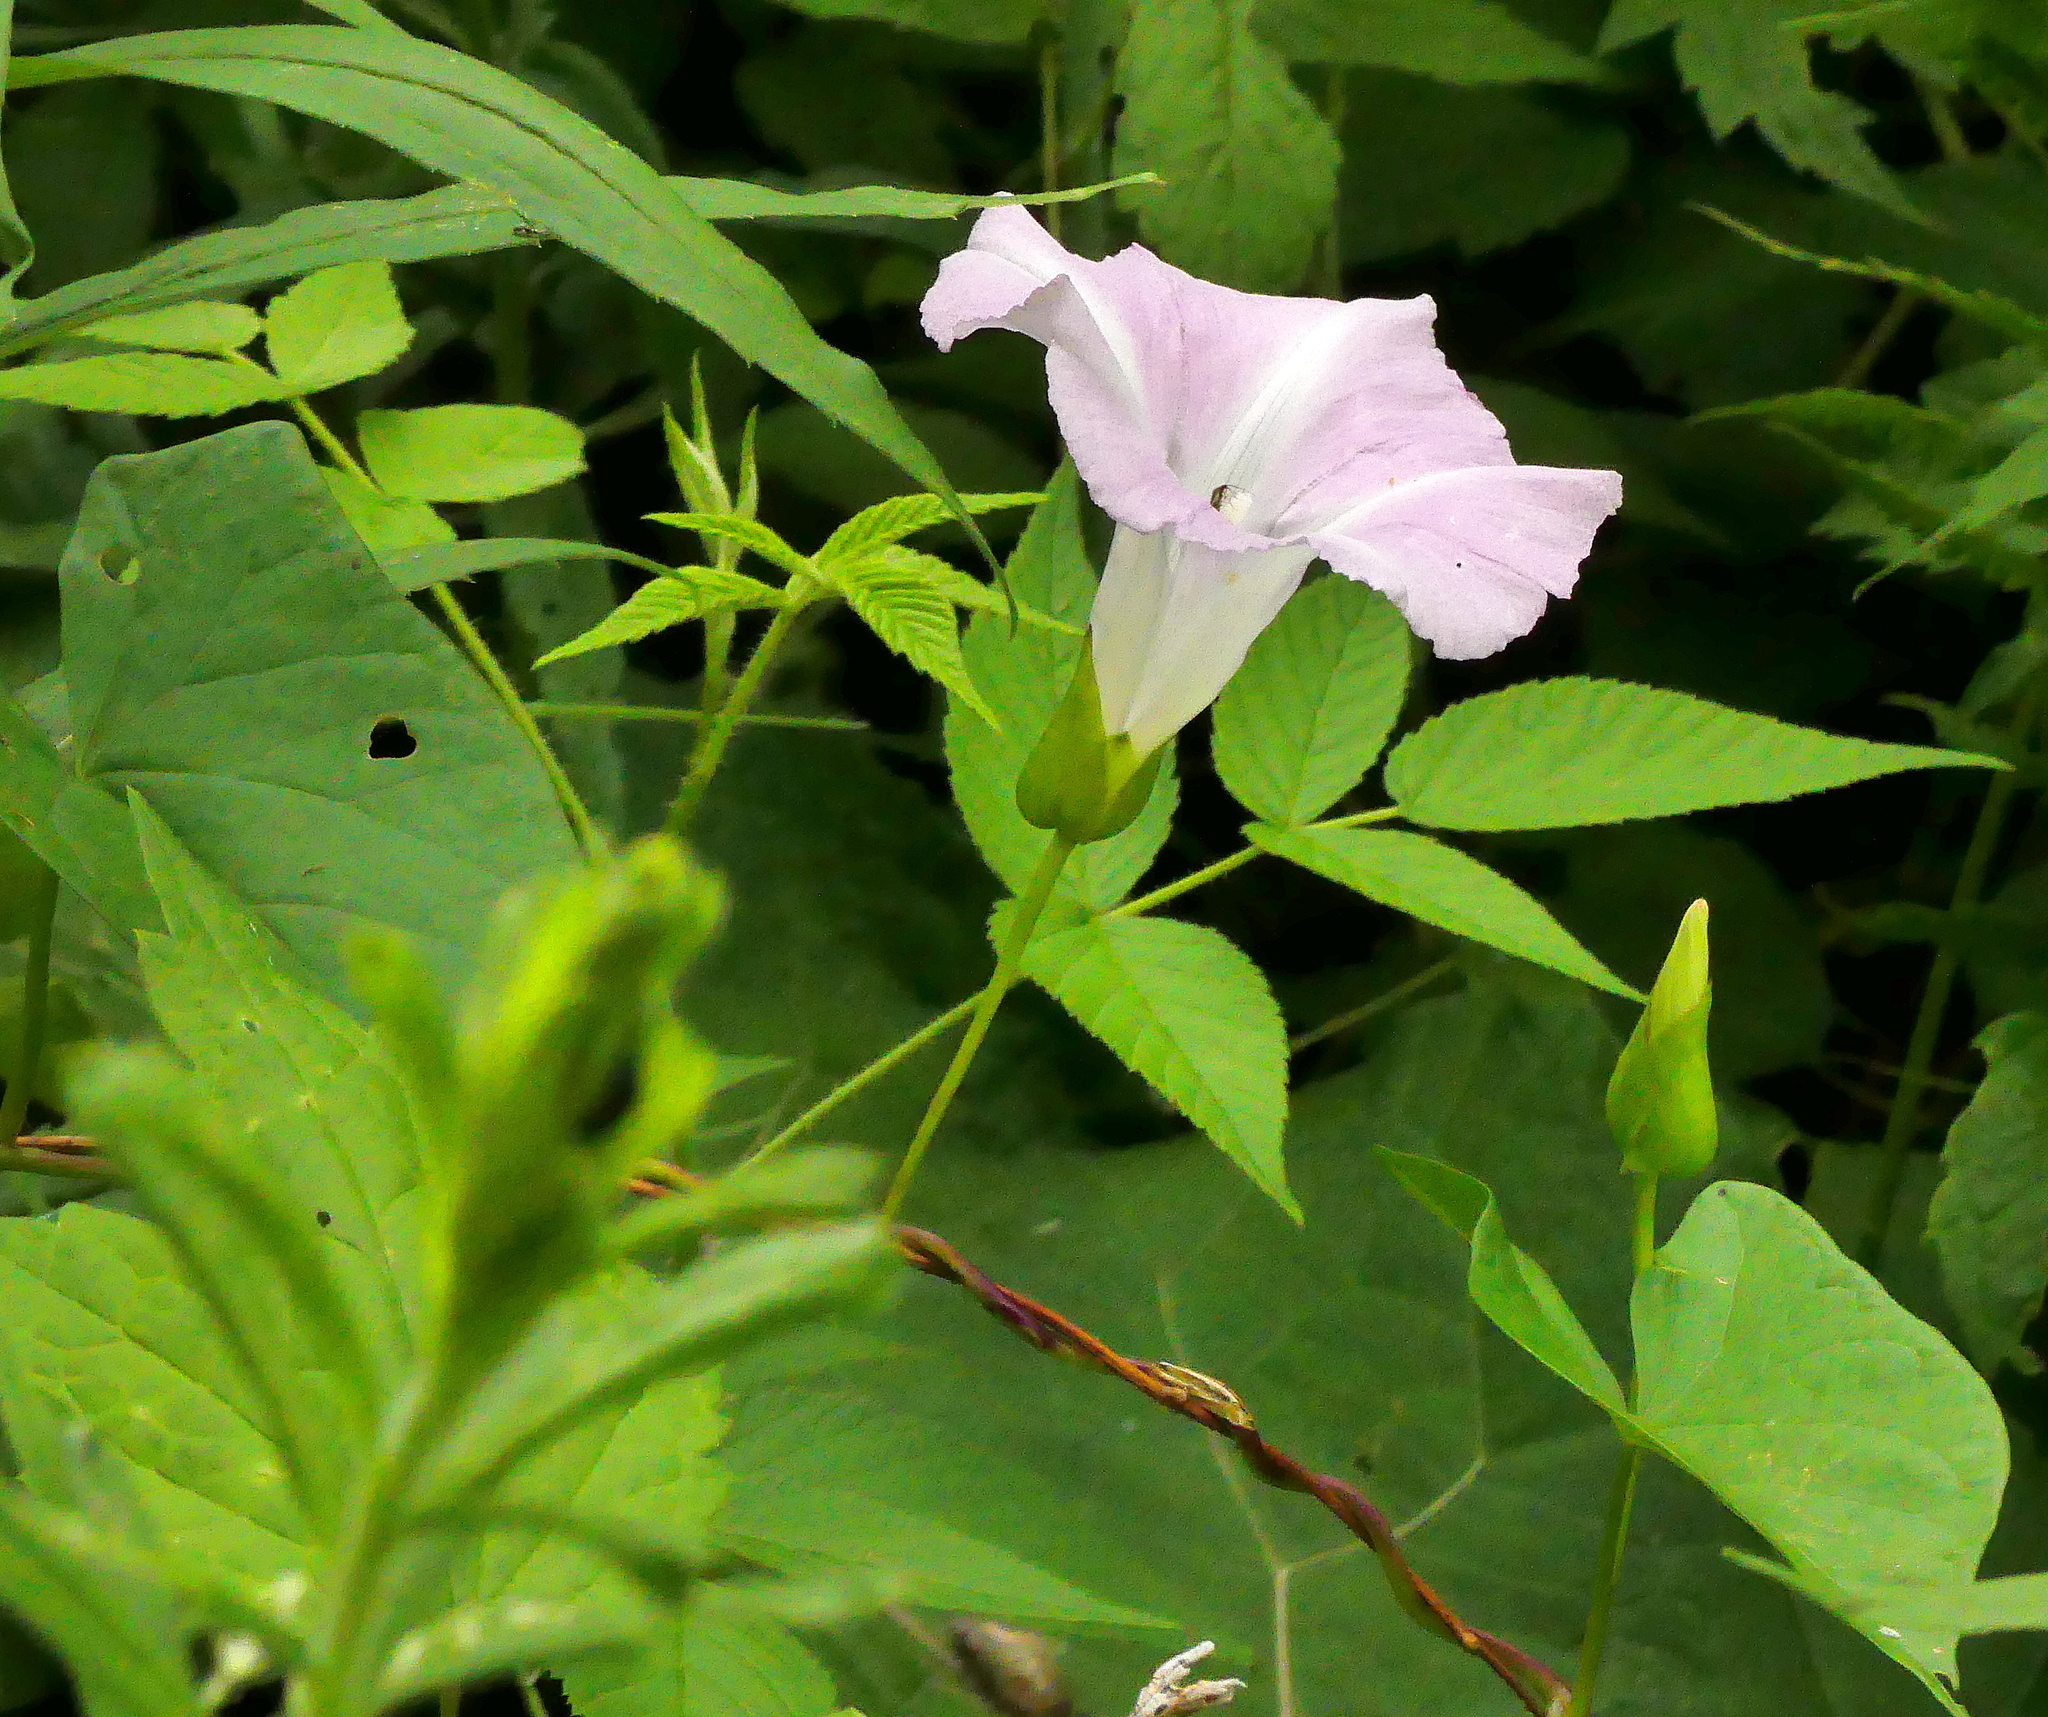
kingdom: Plantae
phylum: Tracheophyta
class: Magnoliopsida
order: Solanales
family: Convolvulaceae
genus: Calystegia
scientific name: Calystegia sepium
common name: Hedge bindweed
